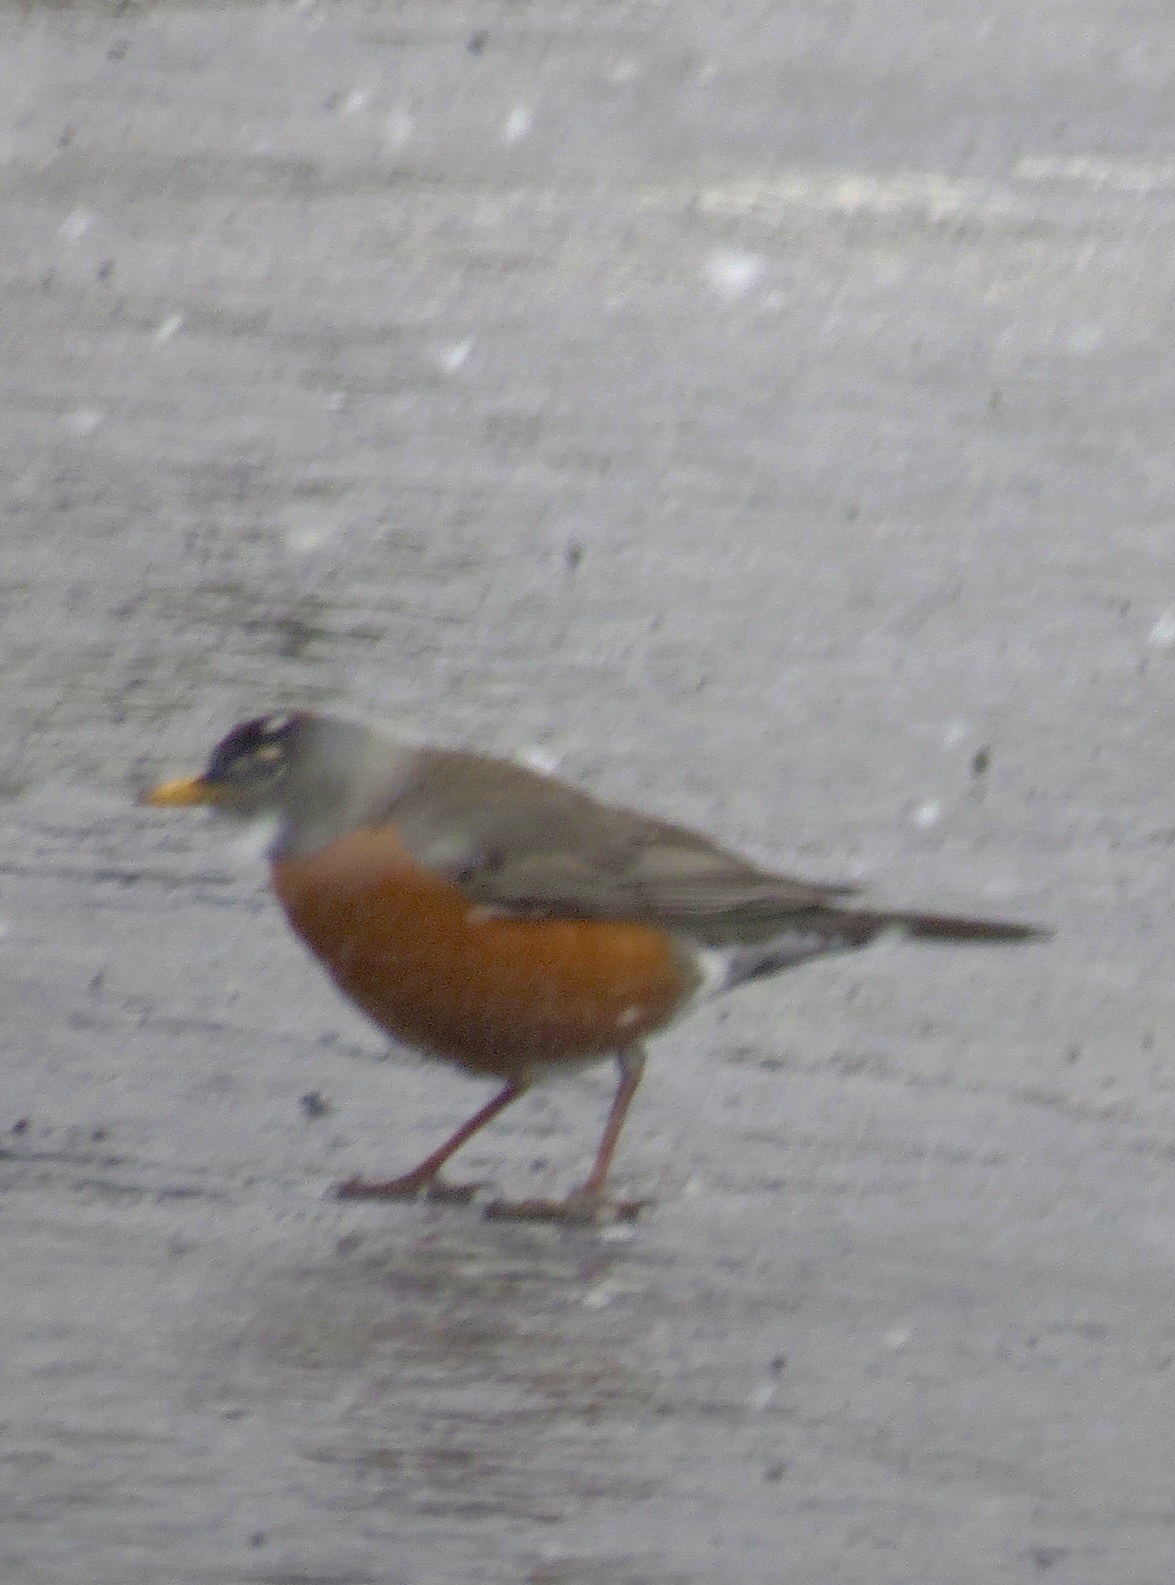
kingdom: Animalia
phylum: Chordata
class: Aves
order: Passeriformes
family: Turdidae
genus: Turdus
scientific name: Turdus migratorius
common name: American robin
